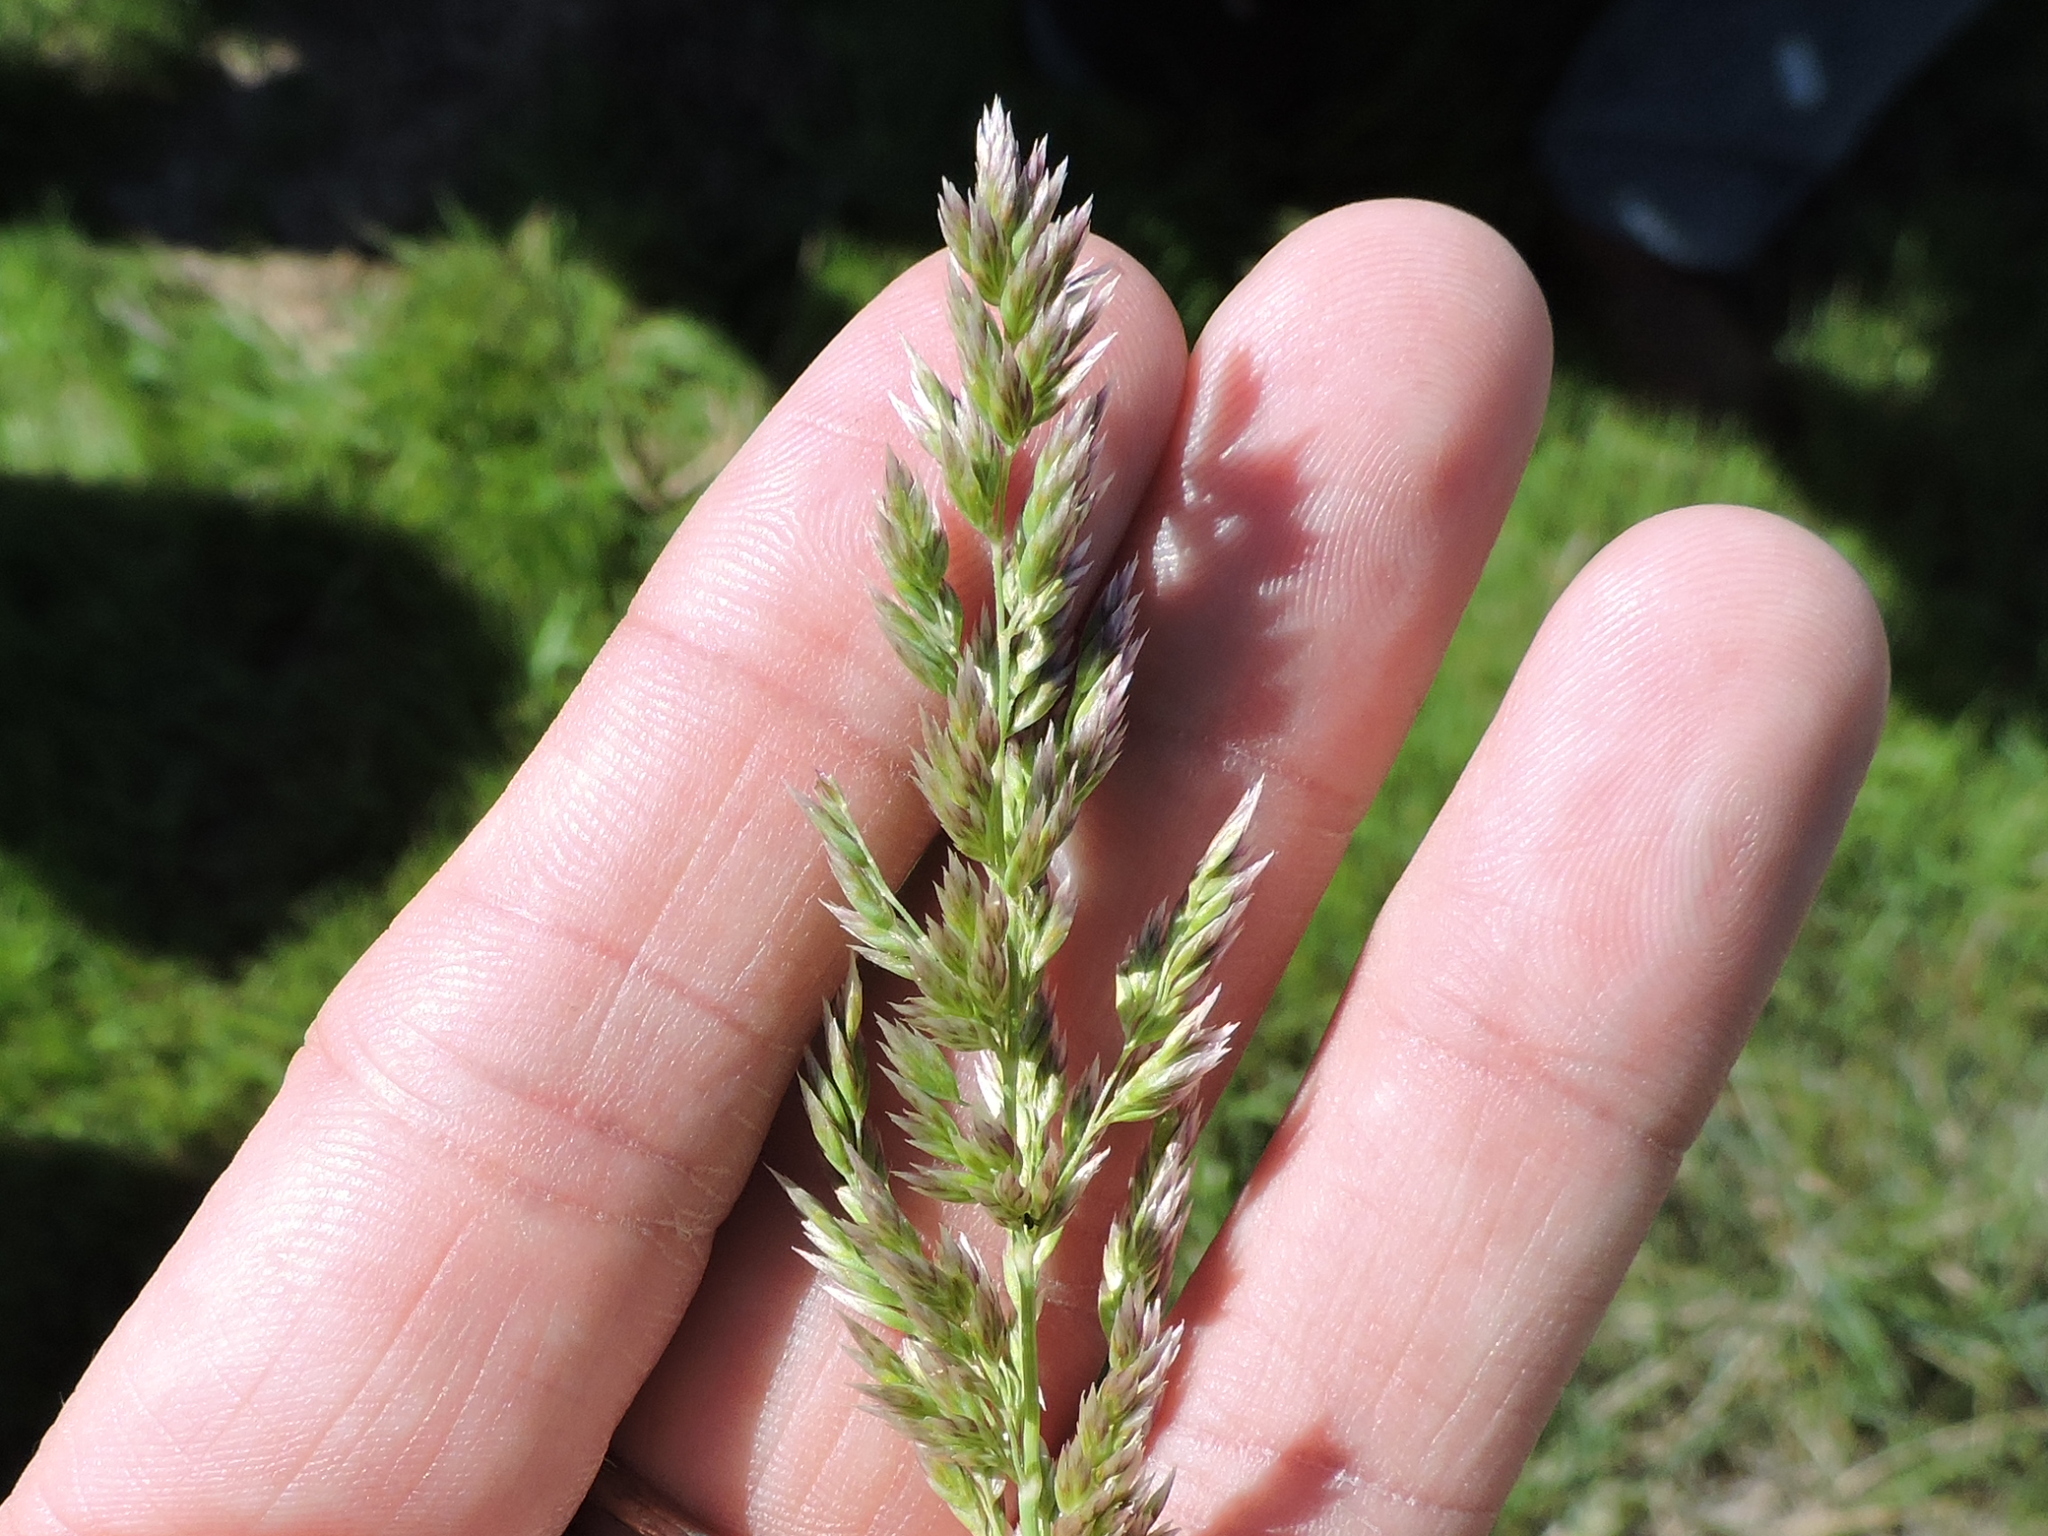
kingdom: Plantae
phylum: Tracheophyta
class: Liliopsida
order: Poales
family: Poaceae
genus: Poa
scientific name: Poa arachnifera
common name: Texas bluegrass
